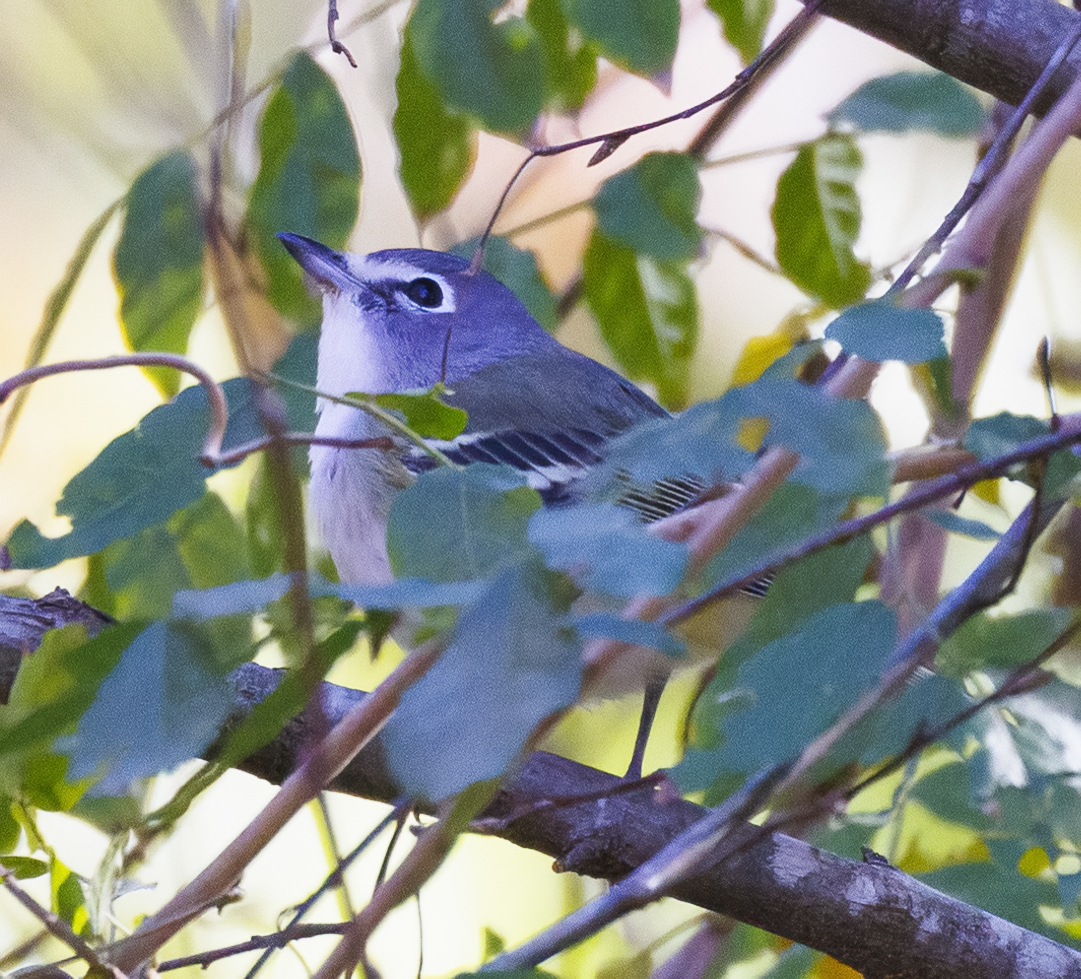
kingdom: Animalia
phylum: Chordata
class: Aves
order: Passeriformes
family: Vireonidae
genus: Vireo
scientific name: Vireo solitarius
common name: Blue-headed vireo
